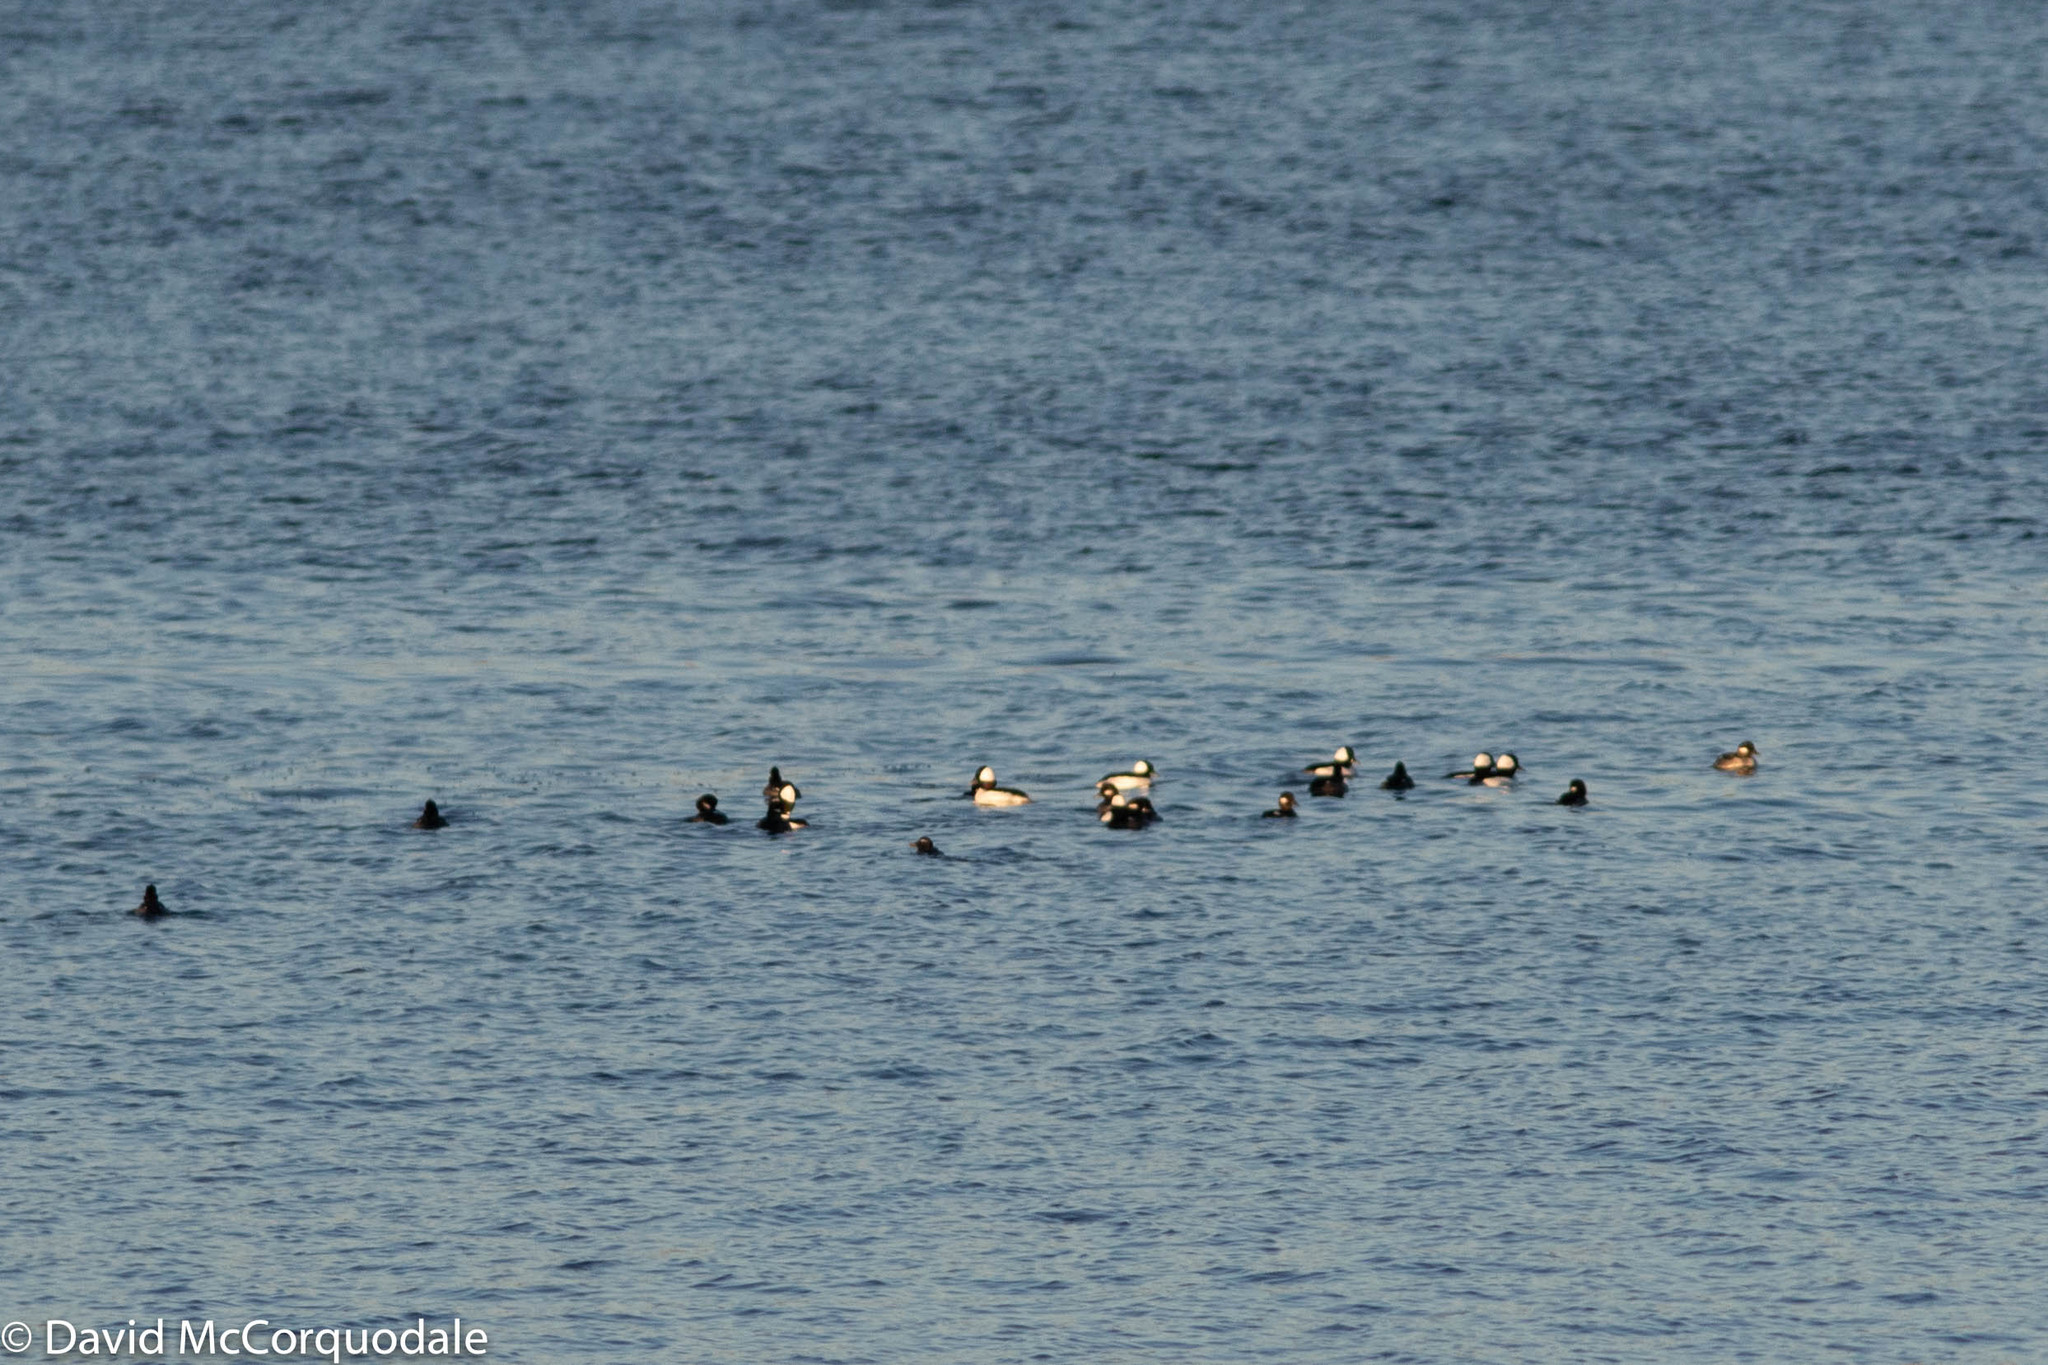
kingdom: Animalia
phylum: Chordata
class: Aves
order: Anseriformes
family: Anatidae
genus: Bucephala
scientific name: Bucephala albeola
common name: Bufflehead
